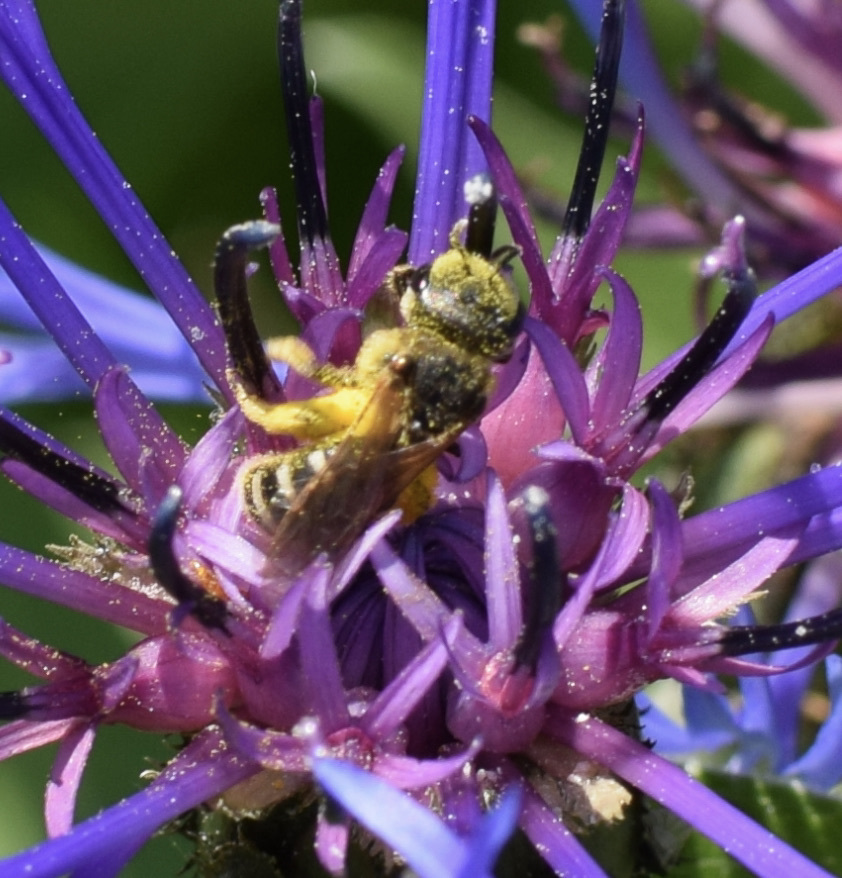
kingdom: Animalia
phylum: Arthropoda
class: Insecta
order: Hymenoptera
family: Halictidae
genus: Halictus
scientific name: Halictus ligatus
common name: Ligated furrow bee
